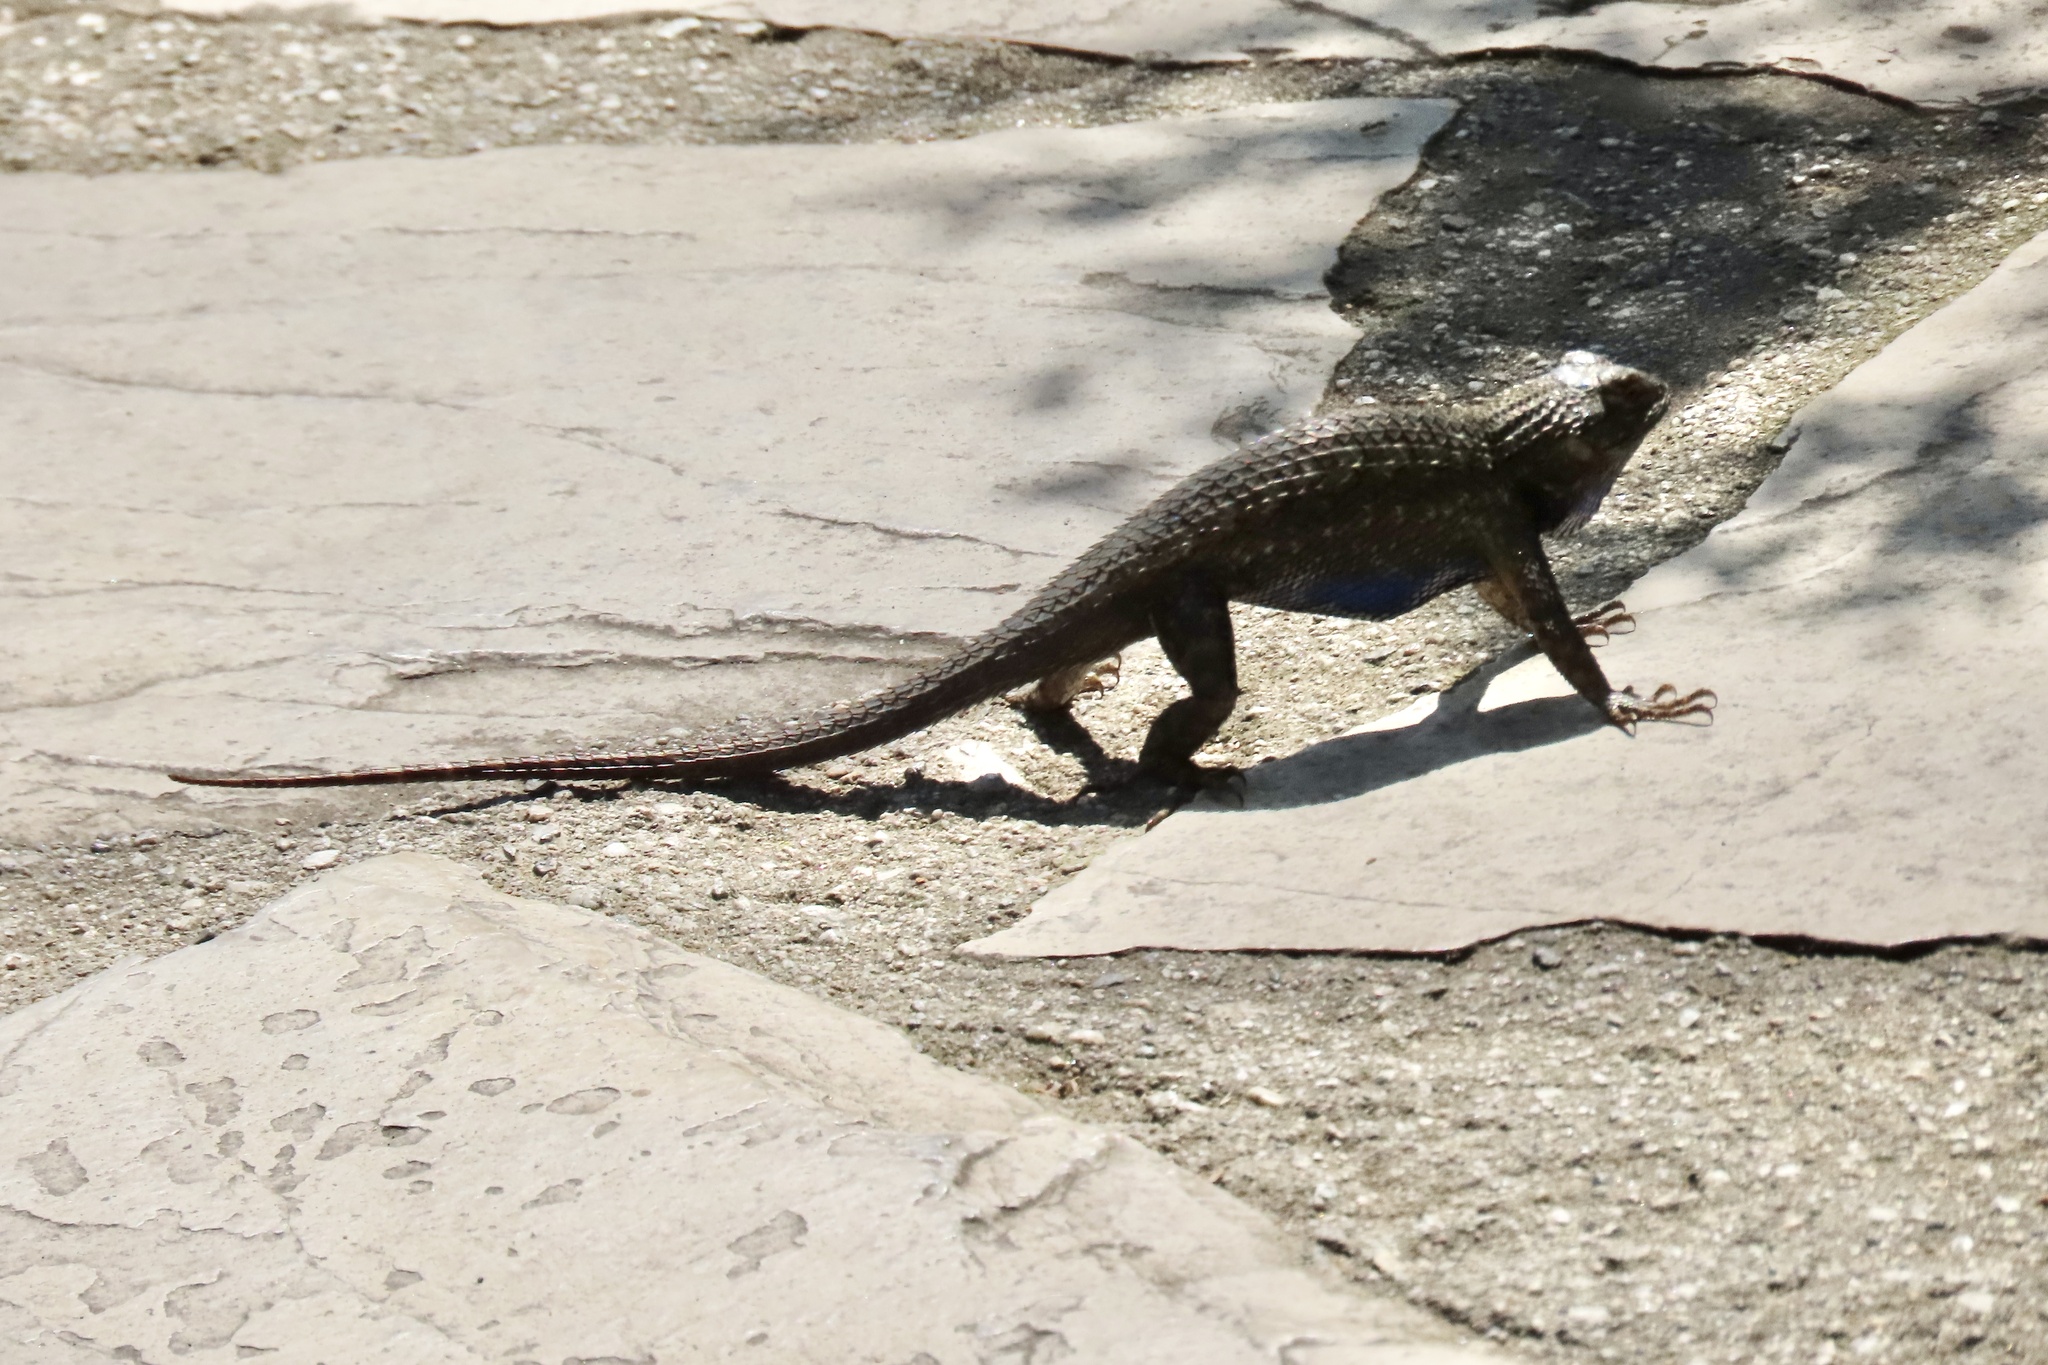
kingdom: Animalia
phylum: Chordata
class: Squamata
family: Phrynosomatidae
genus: Sceloporus
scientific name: Sceloporus occidentalis
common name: Western fence lizard
